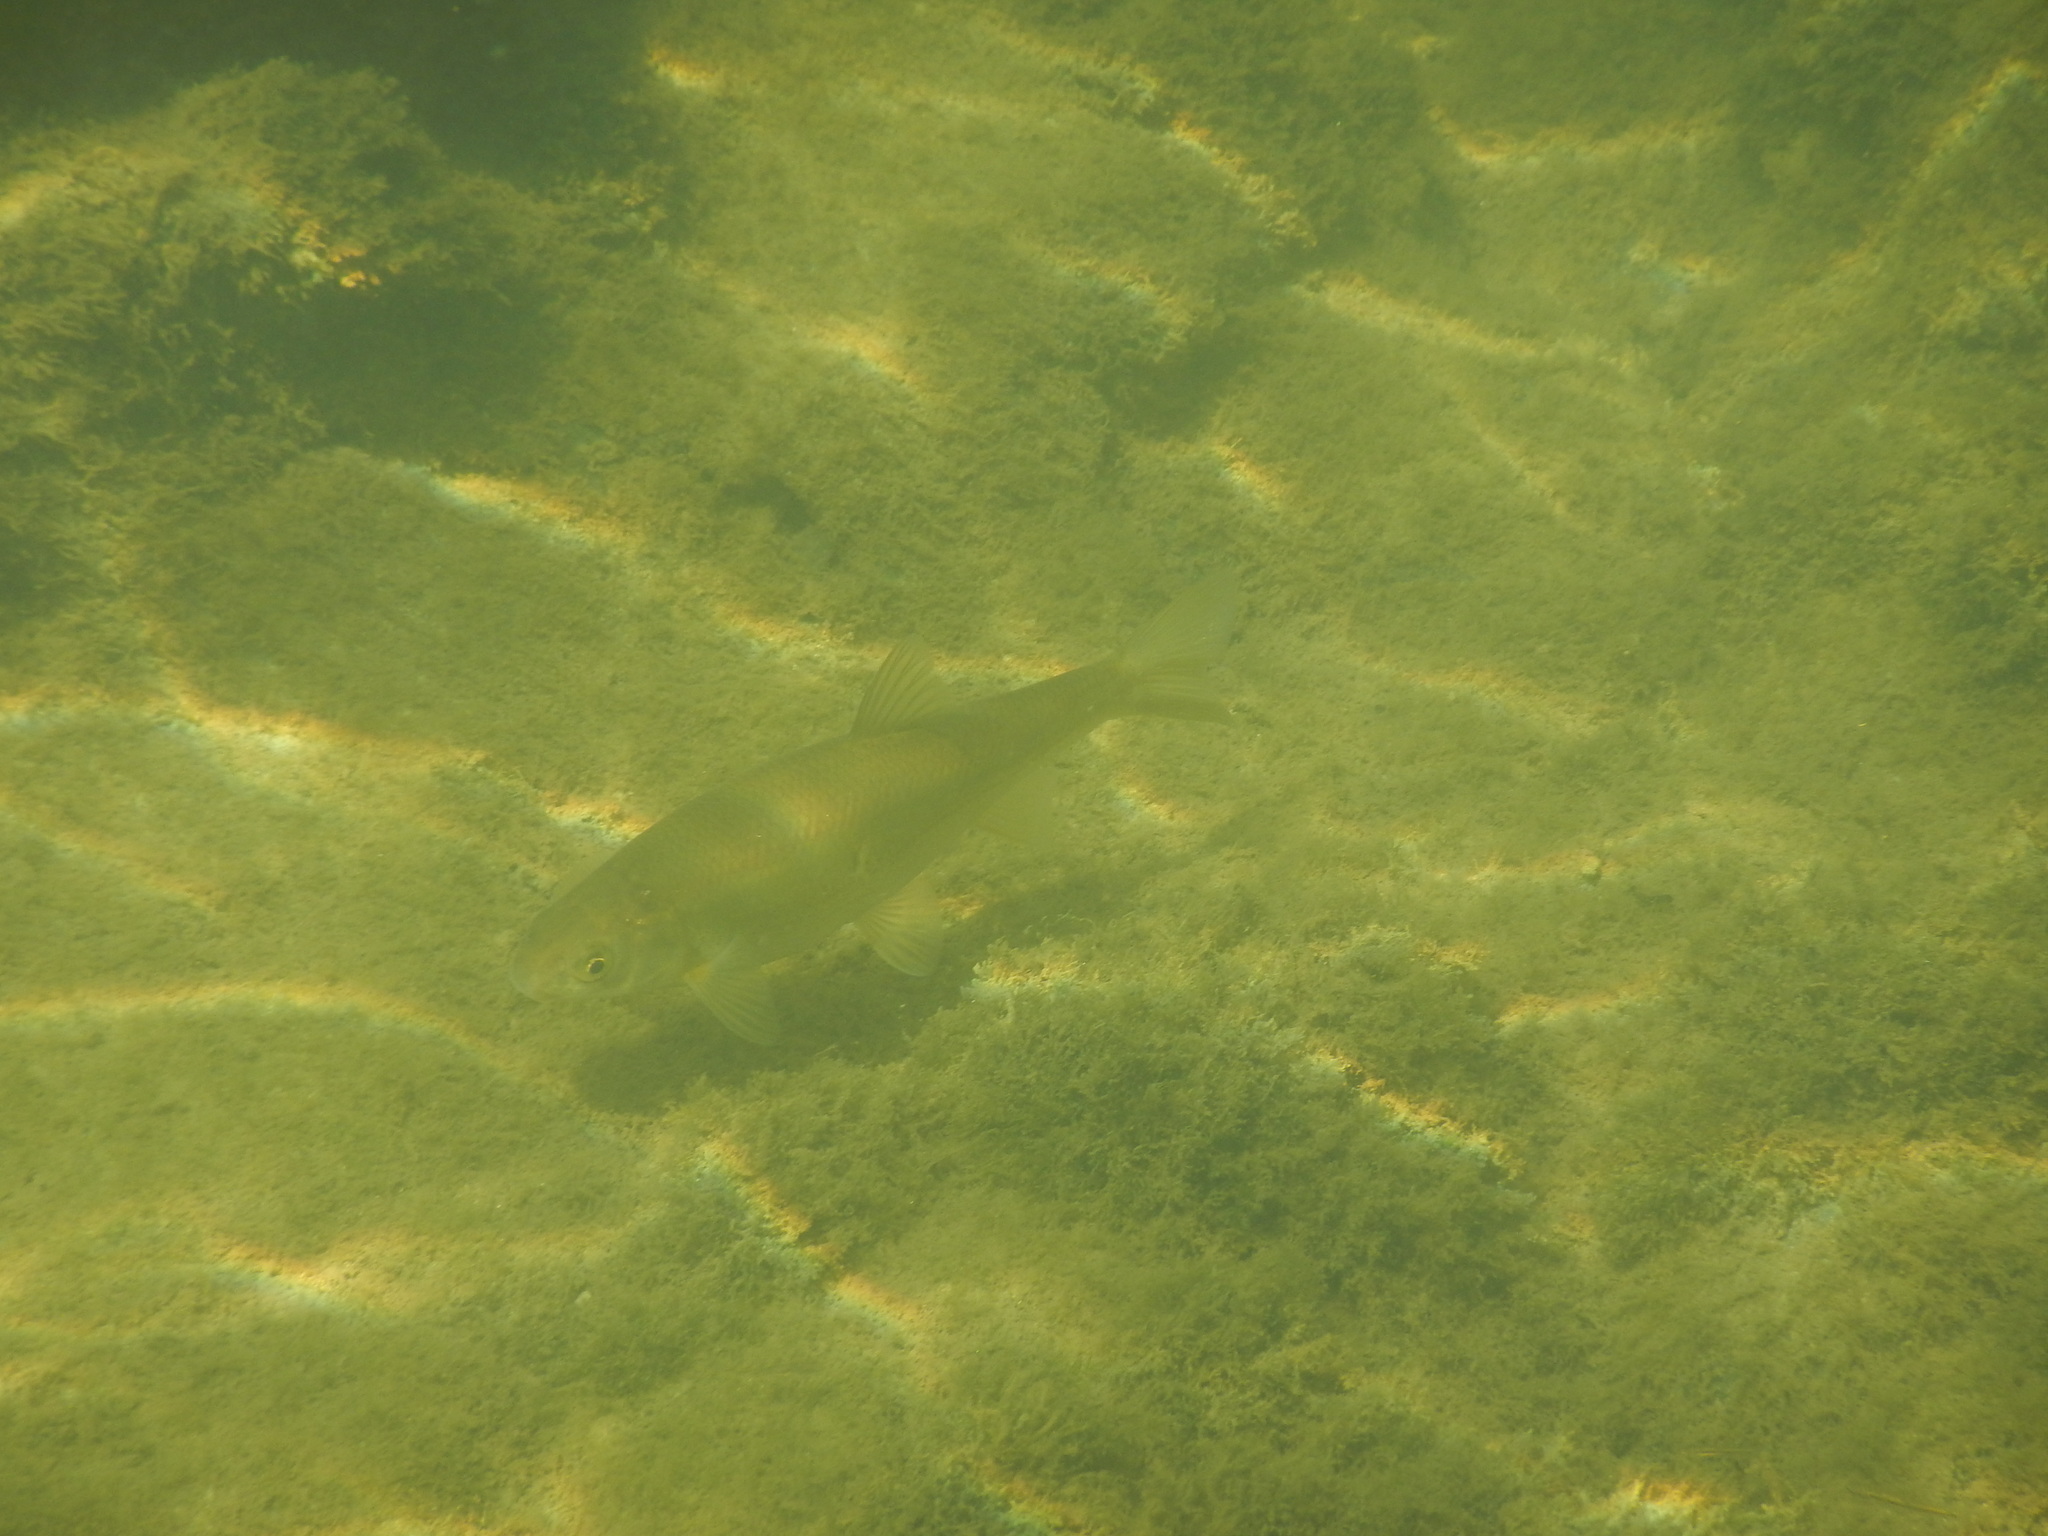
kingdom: Animalia
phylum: Chordata
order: Cypriniformes
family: Cyprinidae
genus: Alburnoides
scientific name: Alburnoides bipunctatus
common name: Spirlin
